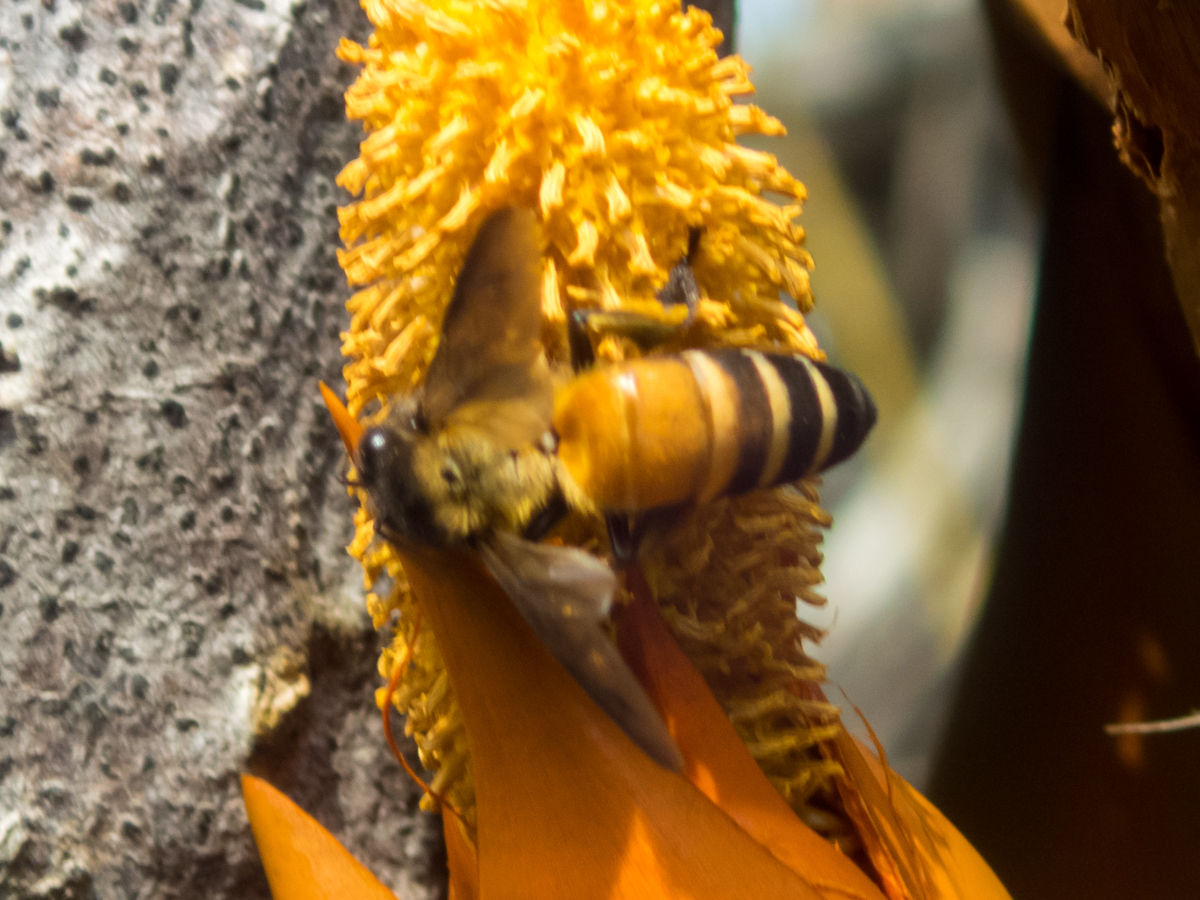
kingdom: Animalia
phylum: Arthropoda
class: Insecta
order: Hymenoptera
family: Apidae
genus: Apis
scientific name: Apis dorsata
